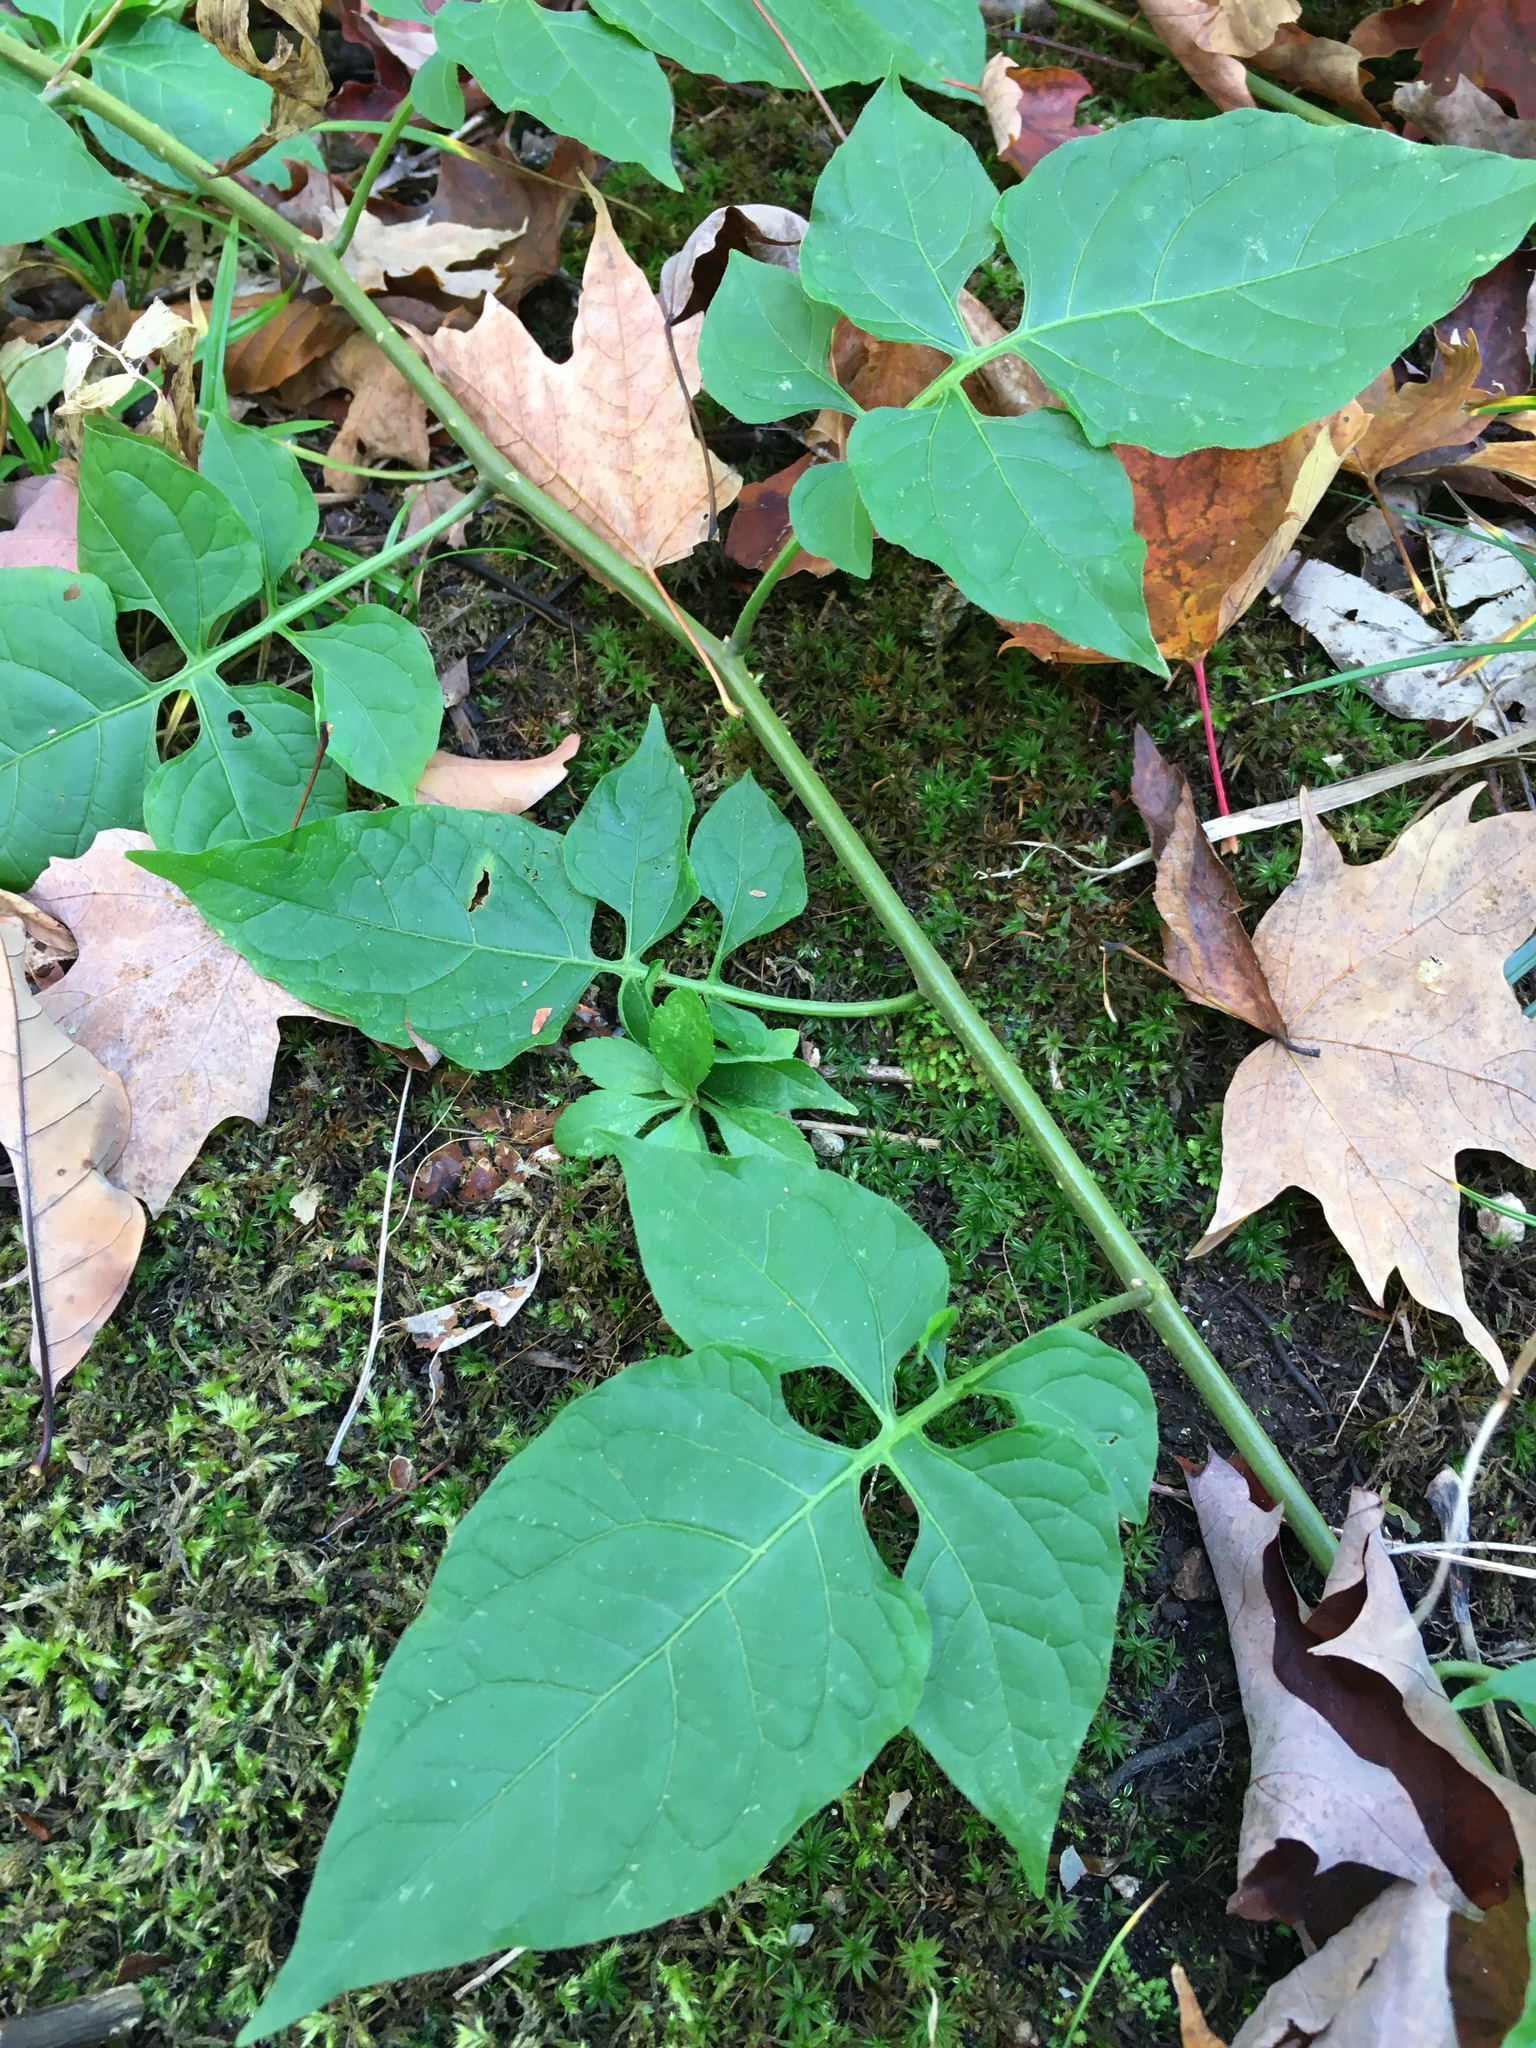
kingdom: Plantae
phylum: Tracheophyta
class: Magnoliopsida
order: Solanales
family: Solanaceae
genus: Solanum
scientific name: Solanum dulcamara
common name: Climbing nightshade
